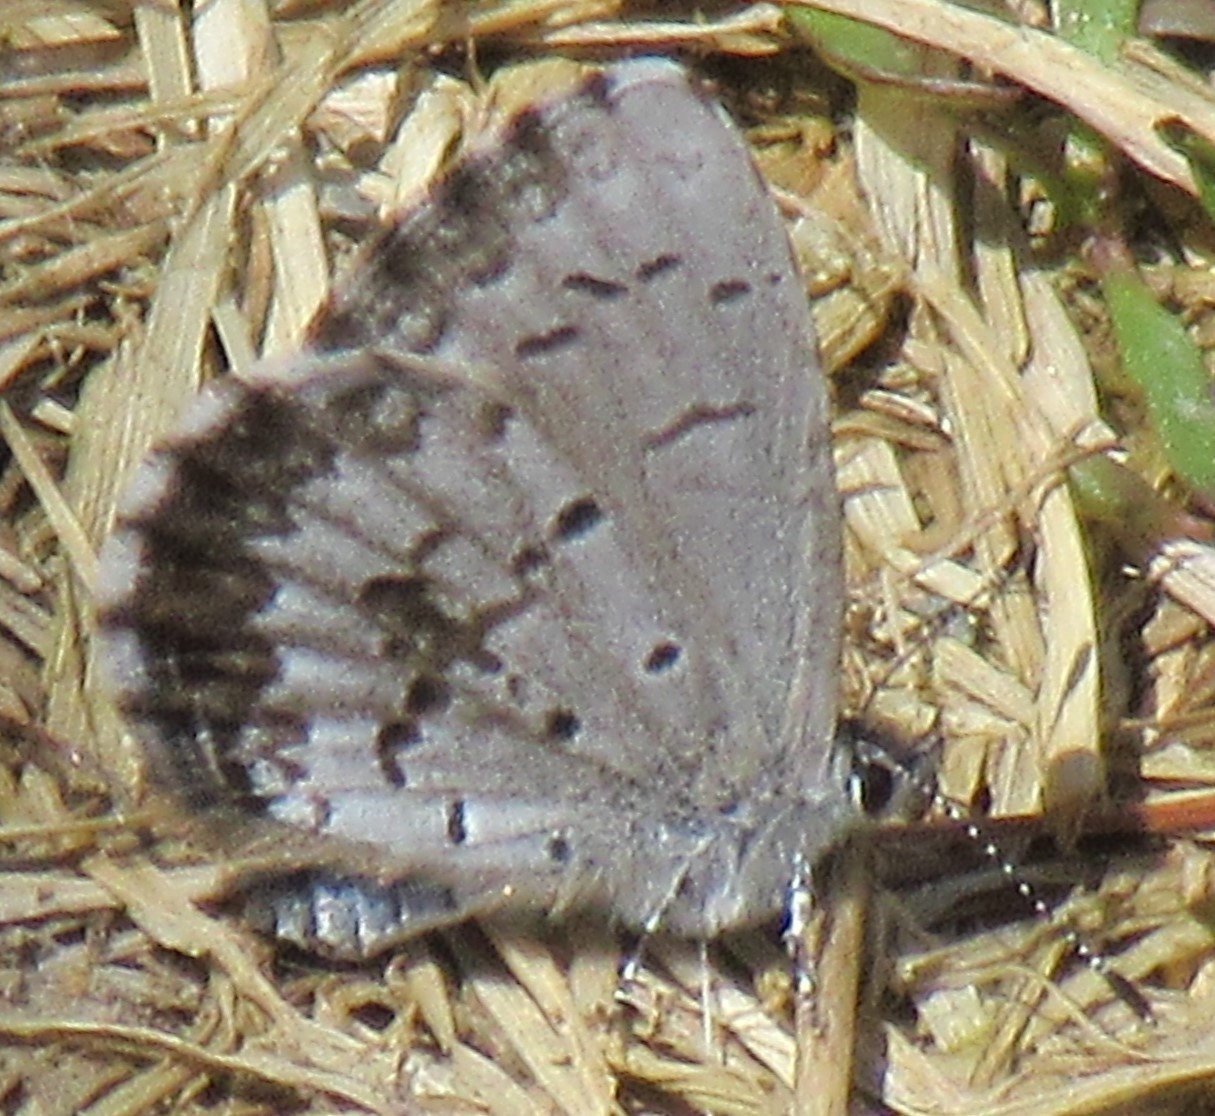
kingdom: Animalia
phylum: Arthropoda
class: Insecta
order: Lepidoptera
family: Lycaenidae
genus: Celastrina
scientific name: Celastrina lucia
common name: Lucia azure
